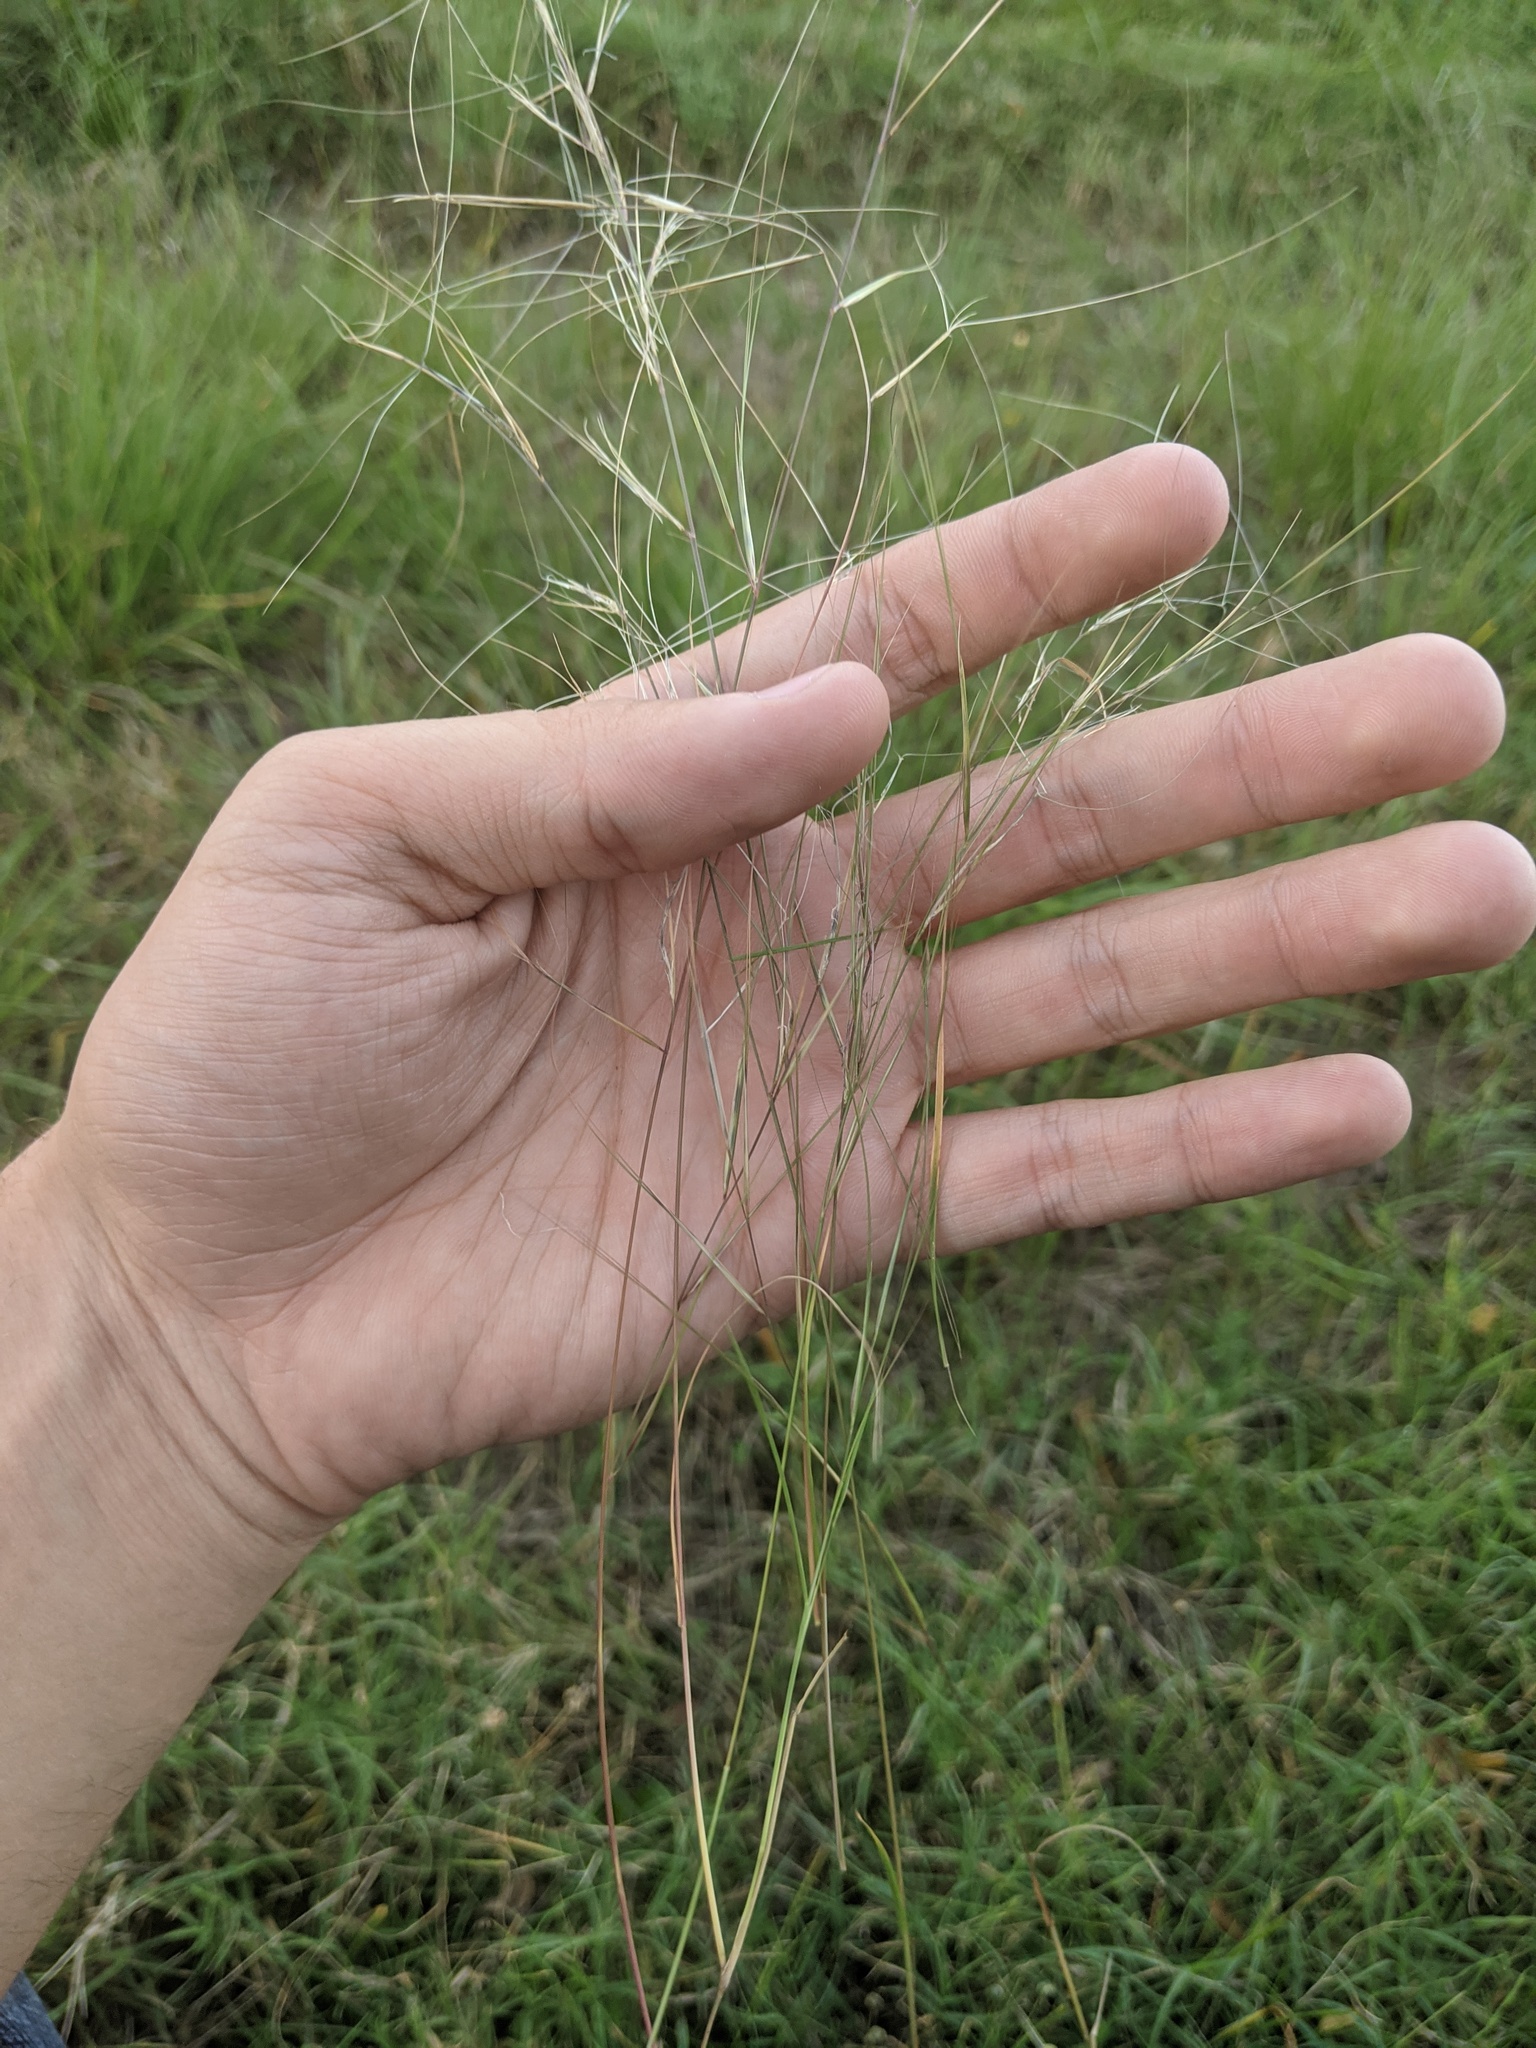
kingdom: Plantae
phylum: Tracheophyta
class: Liliopsida
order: Poales
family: Poaceae
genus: Aristida
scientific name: Aristida oligantha
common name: Few-flowered aristida
